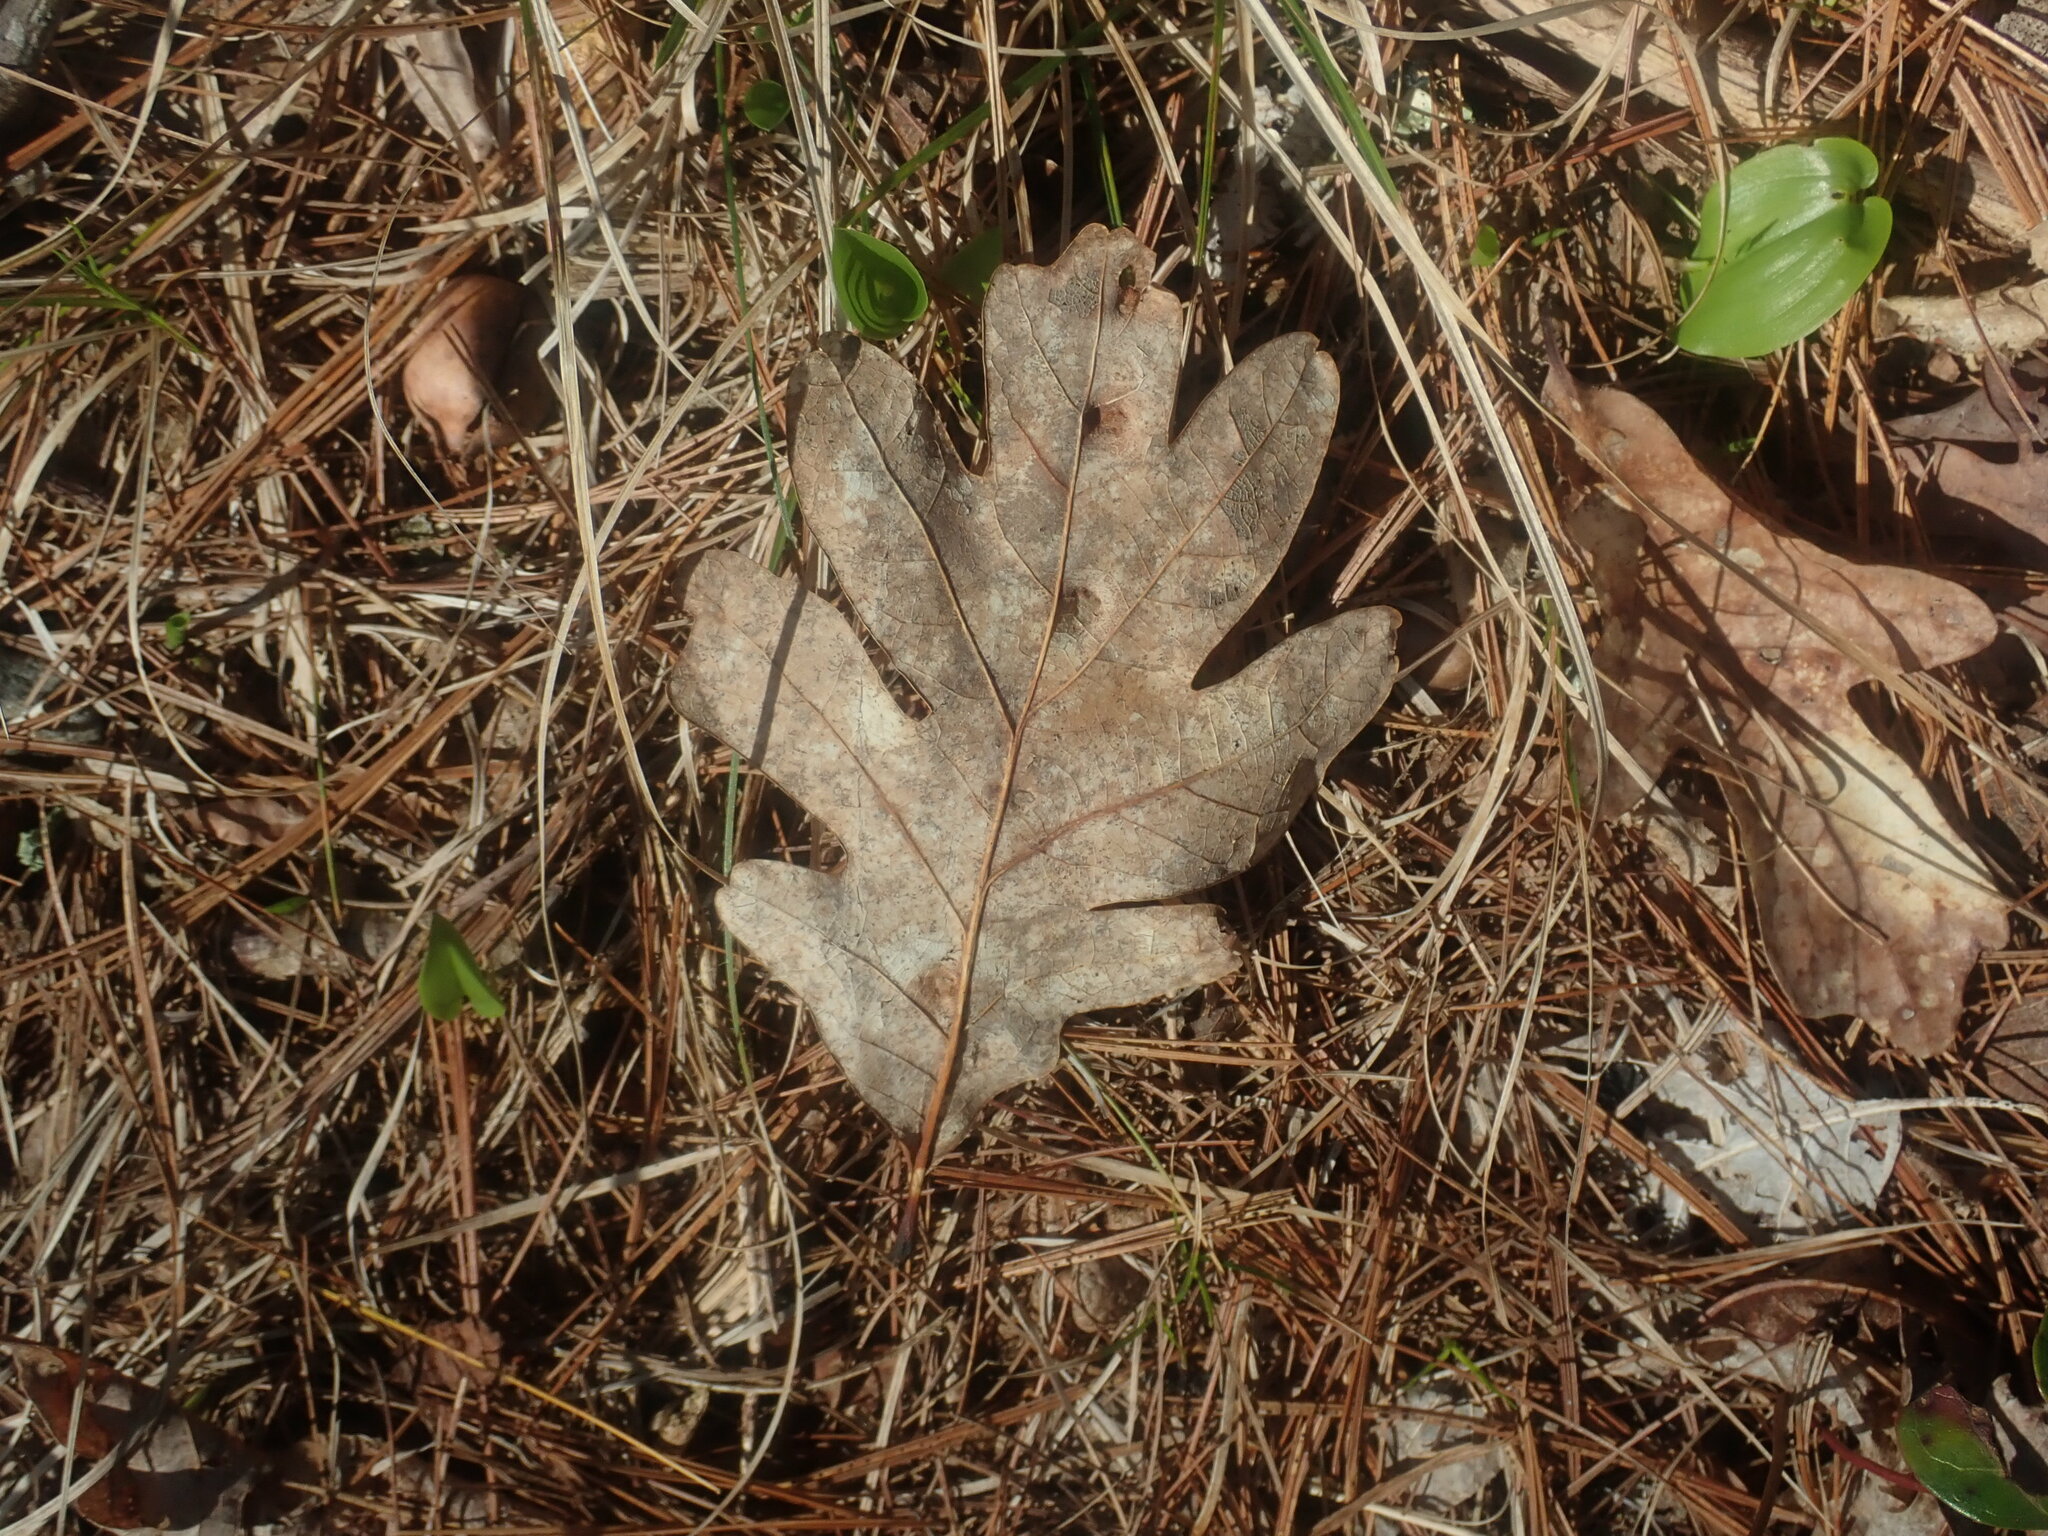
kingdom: Plantae
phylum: Tracheophyta
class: Magnoliopsida
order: Fagales
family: Fagaceae
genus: Quercus
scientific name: Quercus alba
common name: White oak
